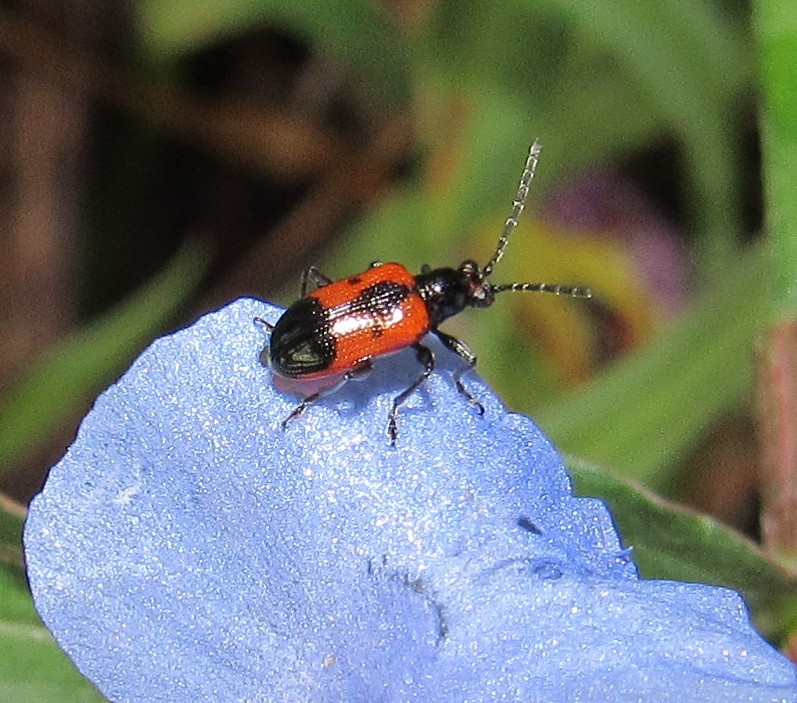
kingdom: Animalia
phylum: Arthropoda
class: Insecta
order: Coleoptera
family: Chrysomelidae
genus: Neolema
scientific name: Neolema dorsalis
